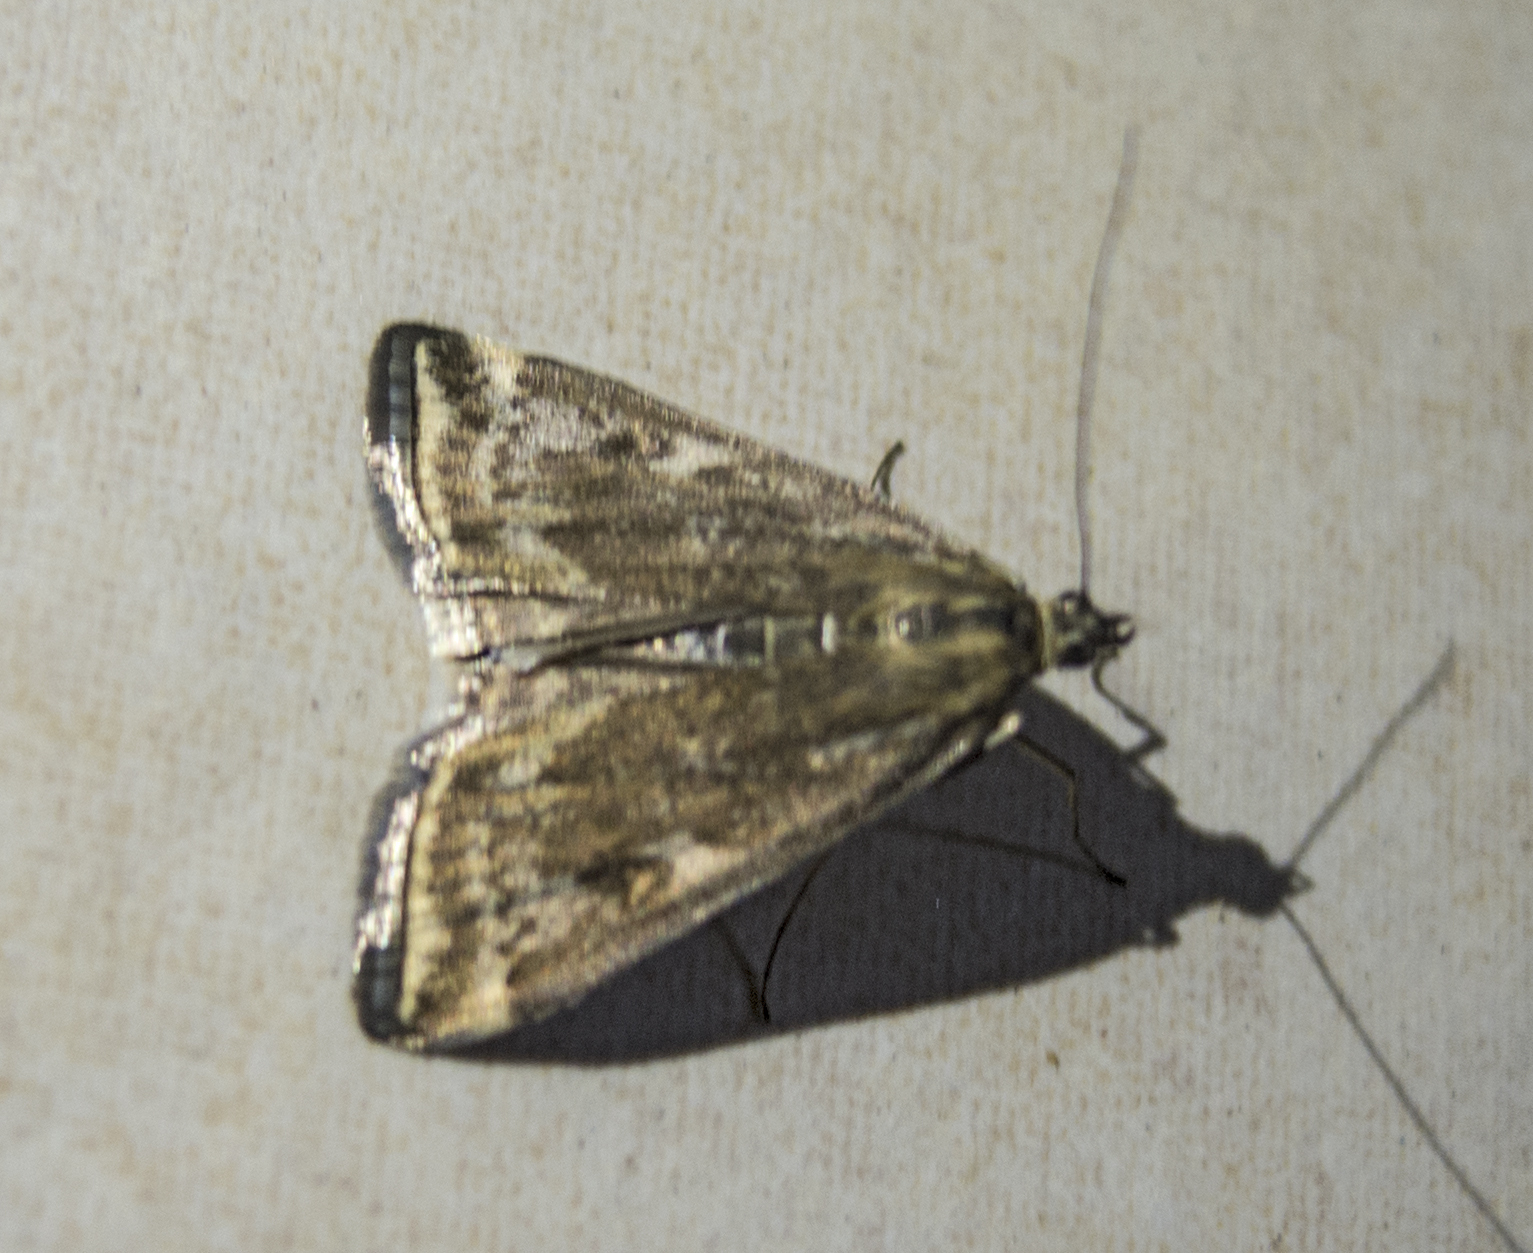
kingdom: Animalia
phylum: Arthropoda
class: Insecta
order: Lepidoptera
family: Crambidae
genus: Loxostege
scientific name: Loxostege sticticalis
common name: Crambid moth
